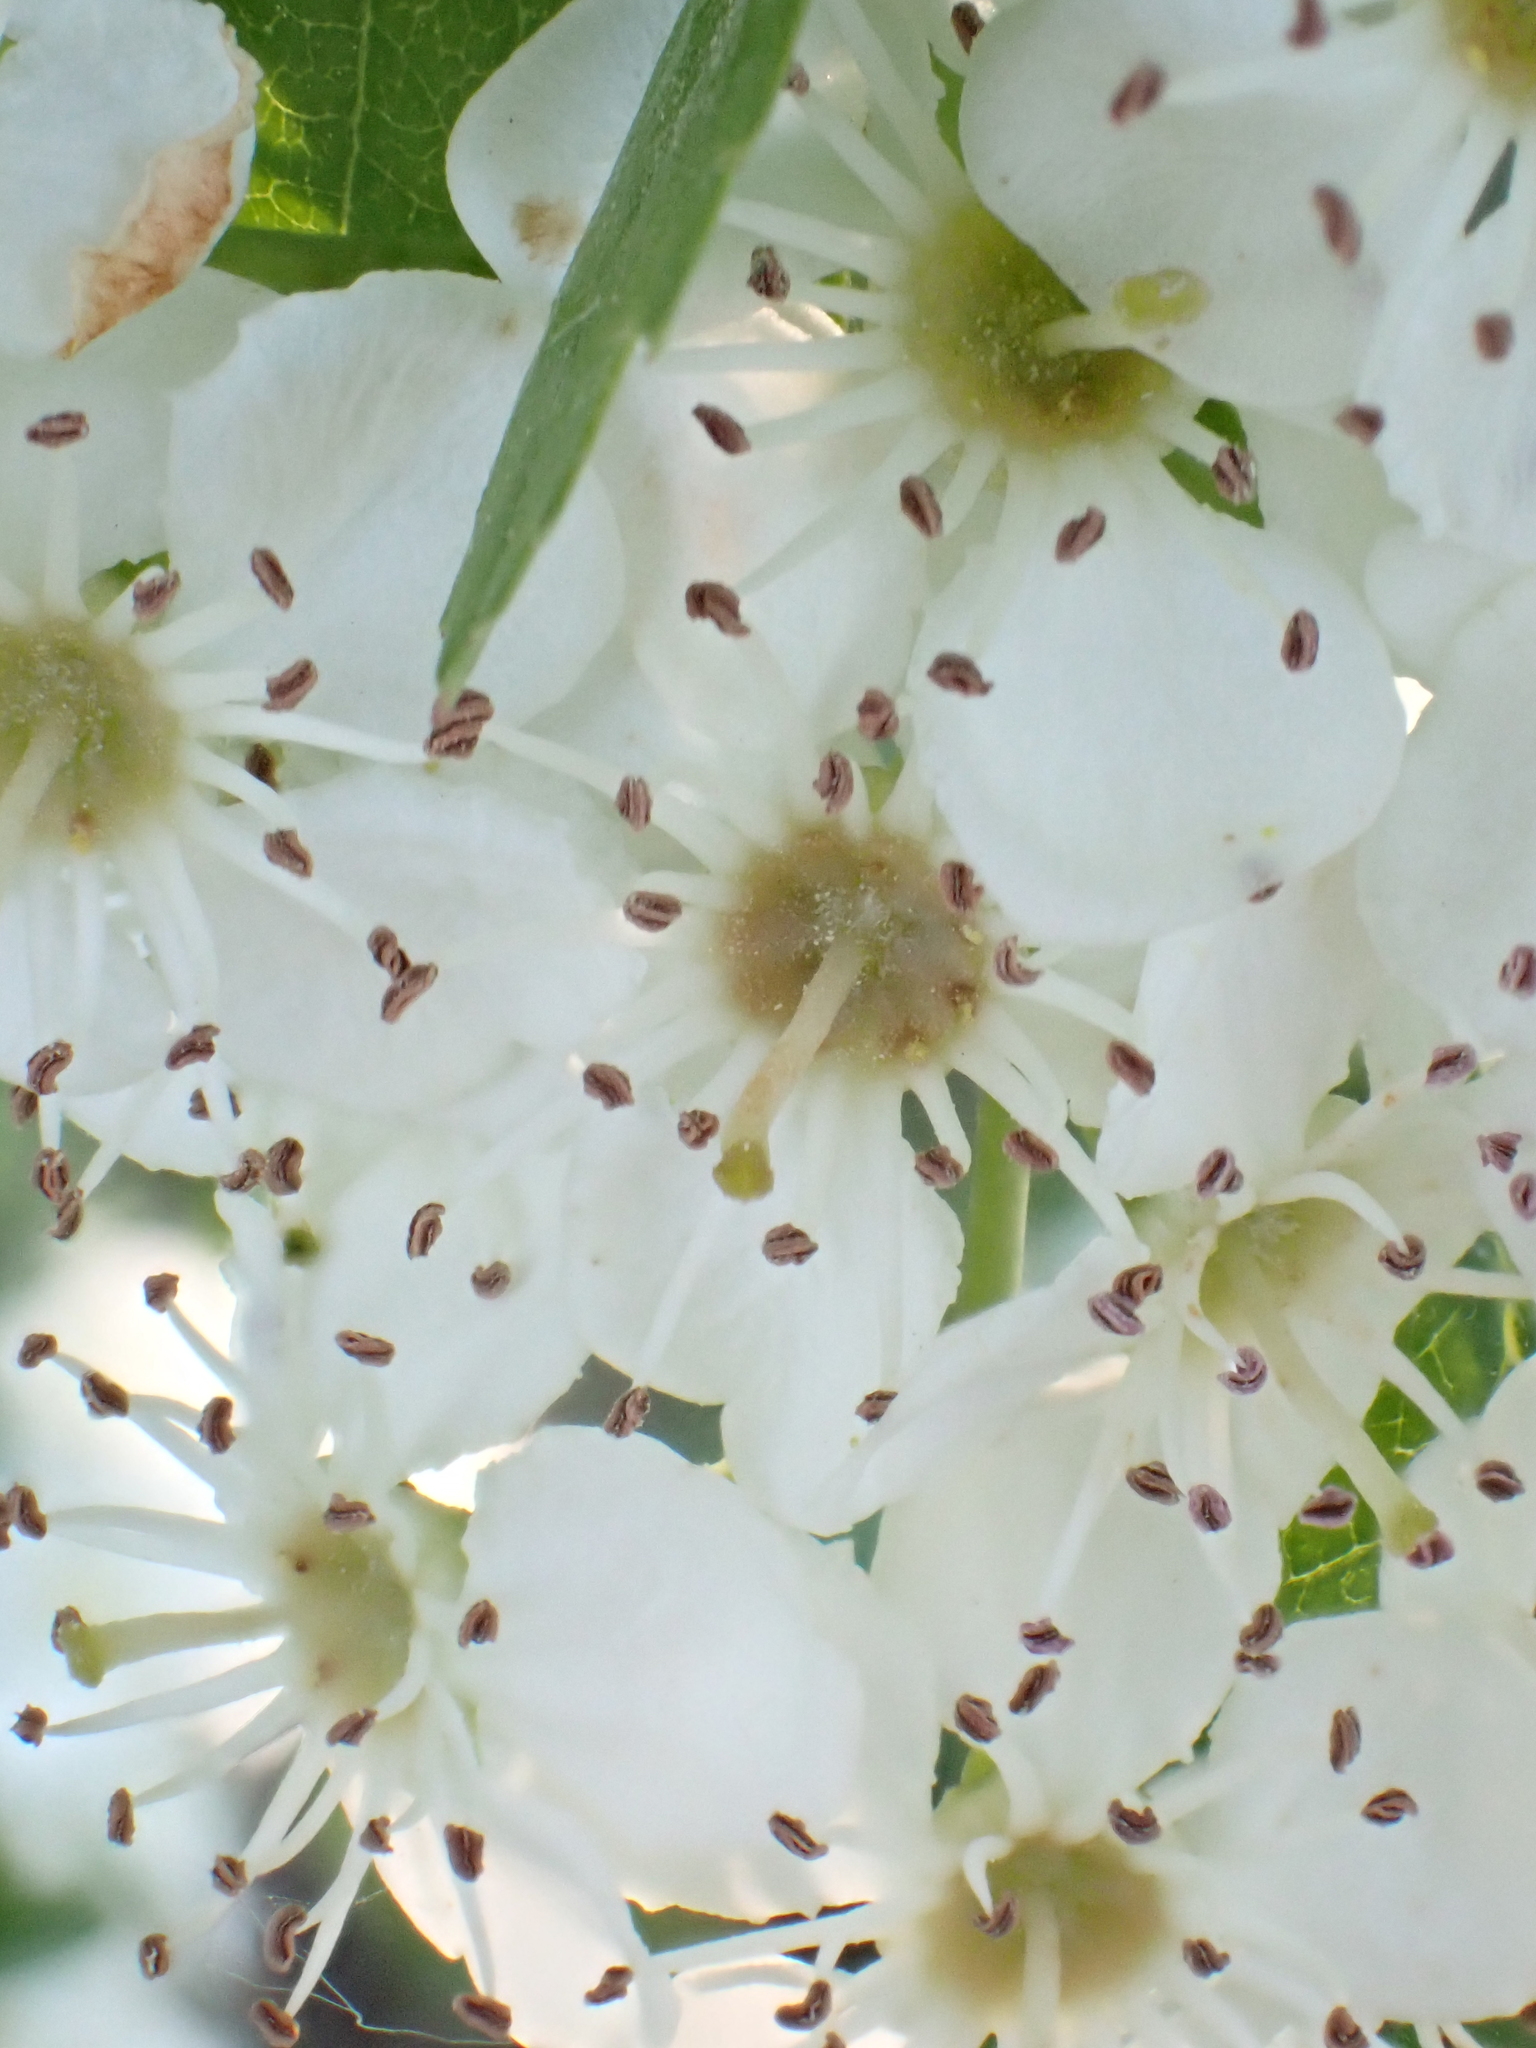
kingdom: Plantae
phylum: Tracheophyta
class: Magnoliopsida
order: Rosales
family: Rosaceae
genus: Crataegus
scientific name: Crataegus monogyna
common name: Hawthorn
